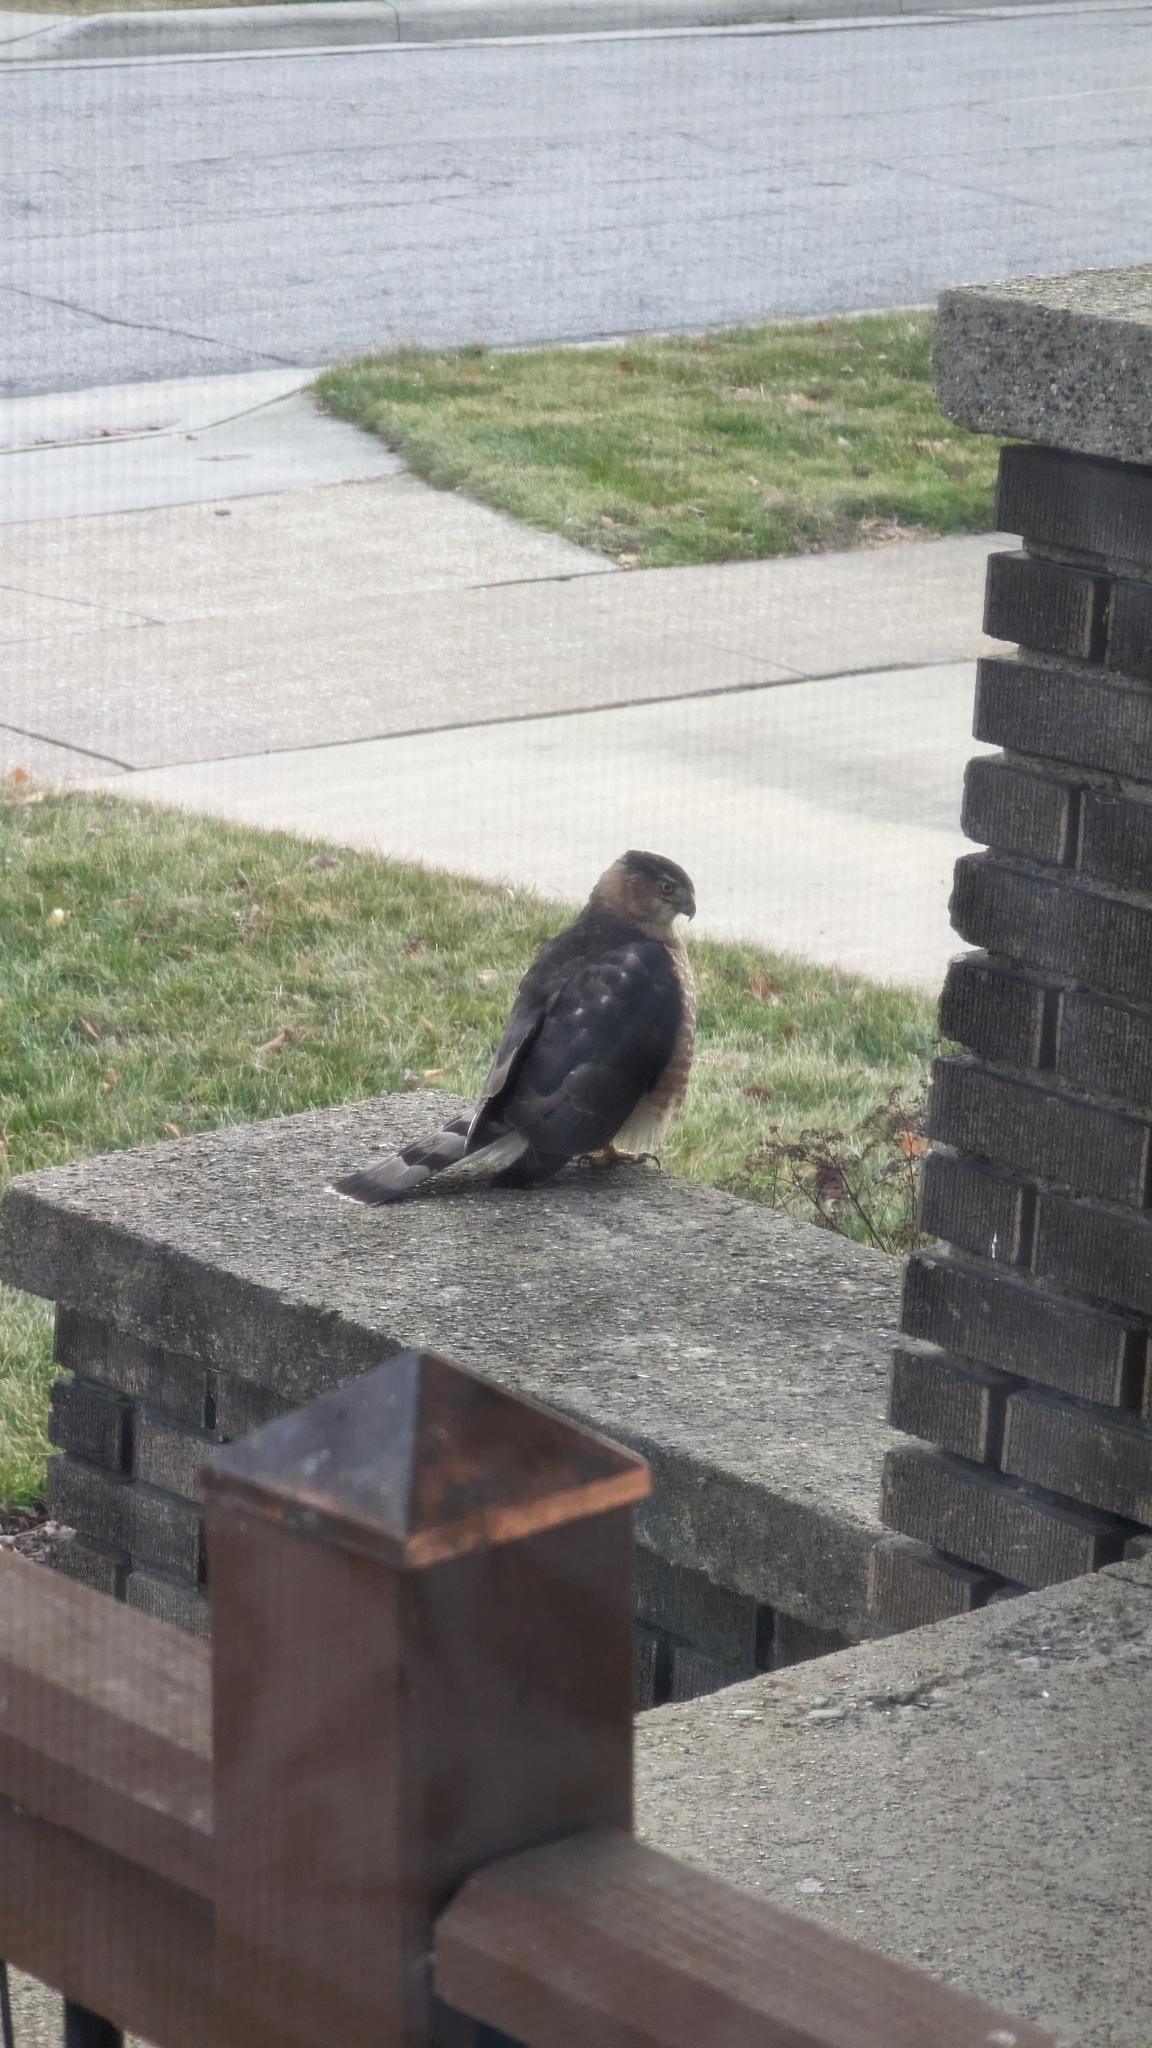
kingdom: Animalia
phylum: Chordata
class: Aves
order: Accipitriformes
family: Accipitridae
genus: Accipiter
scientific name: Accipiter cooperii
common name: Cooper's hawk
